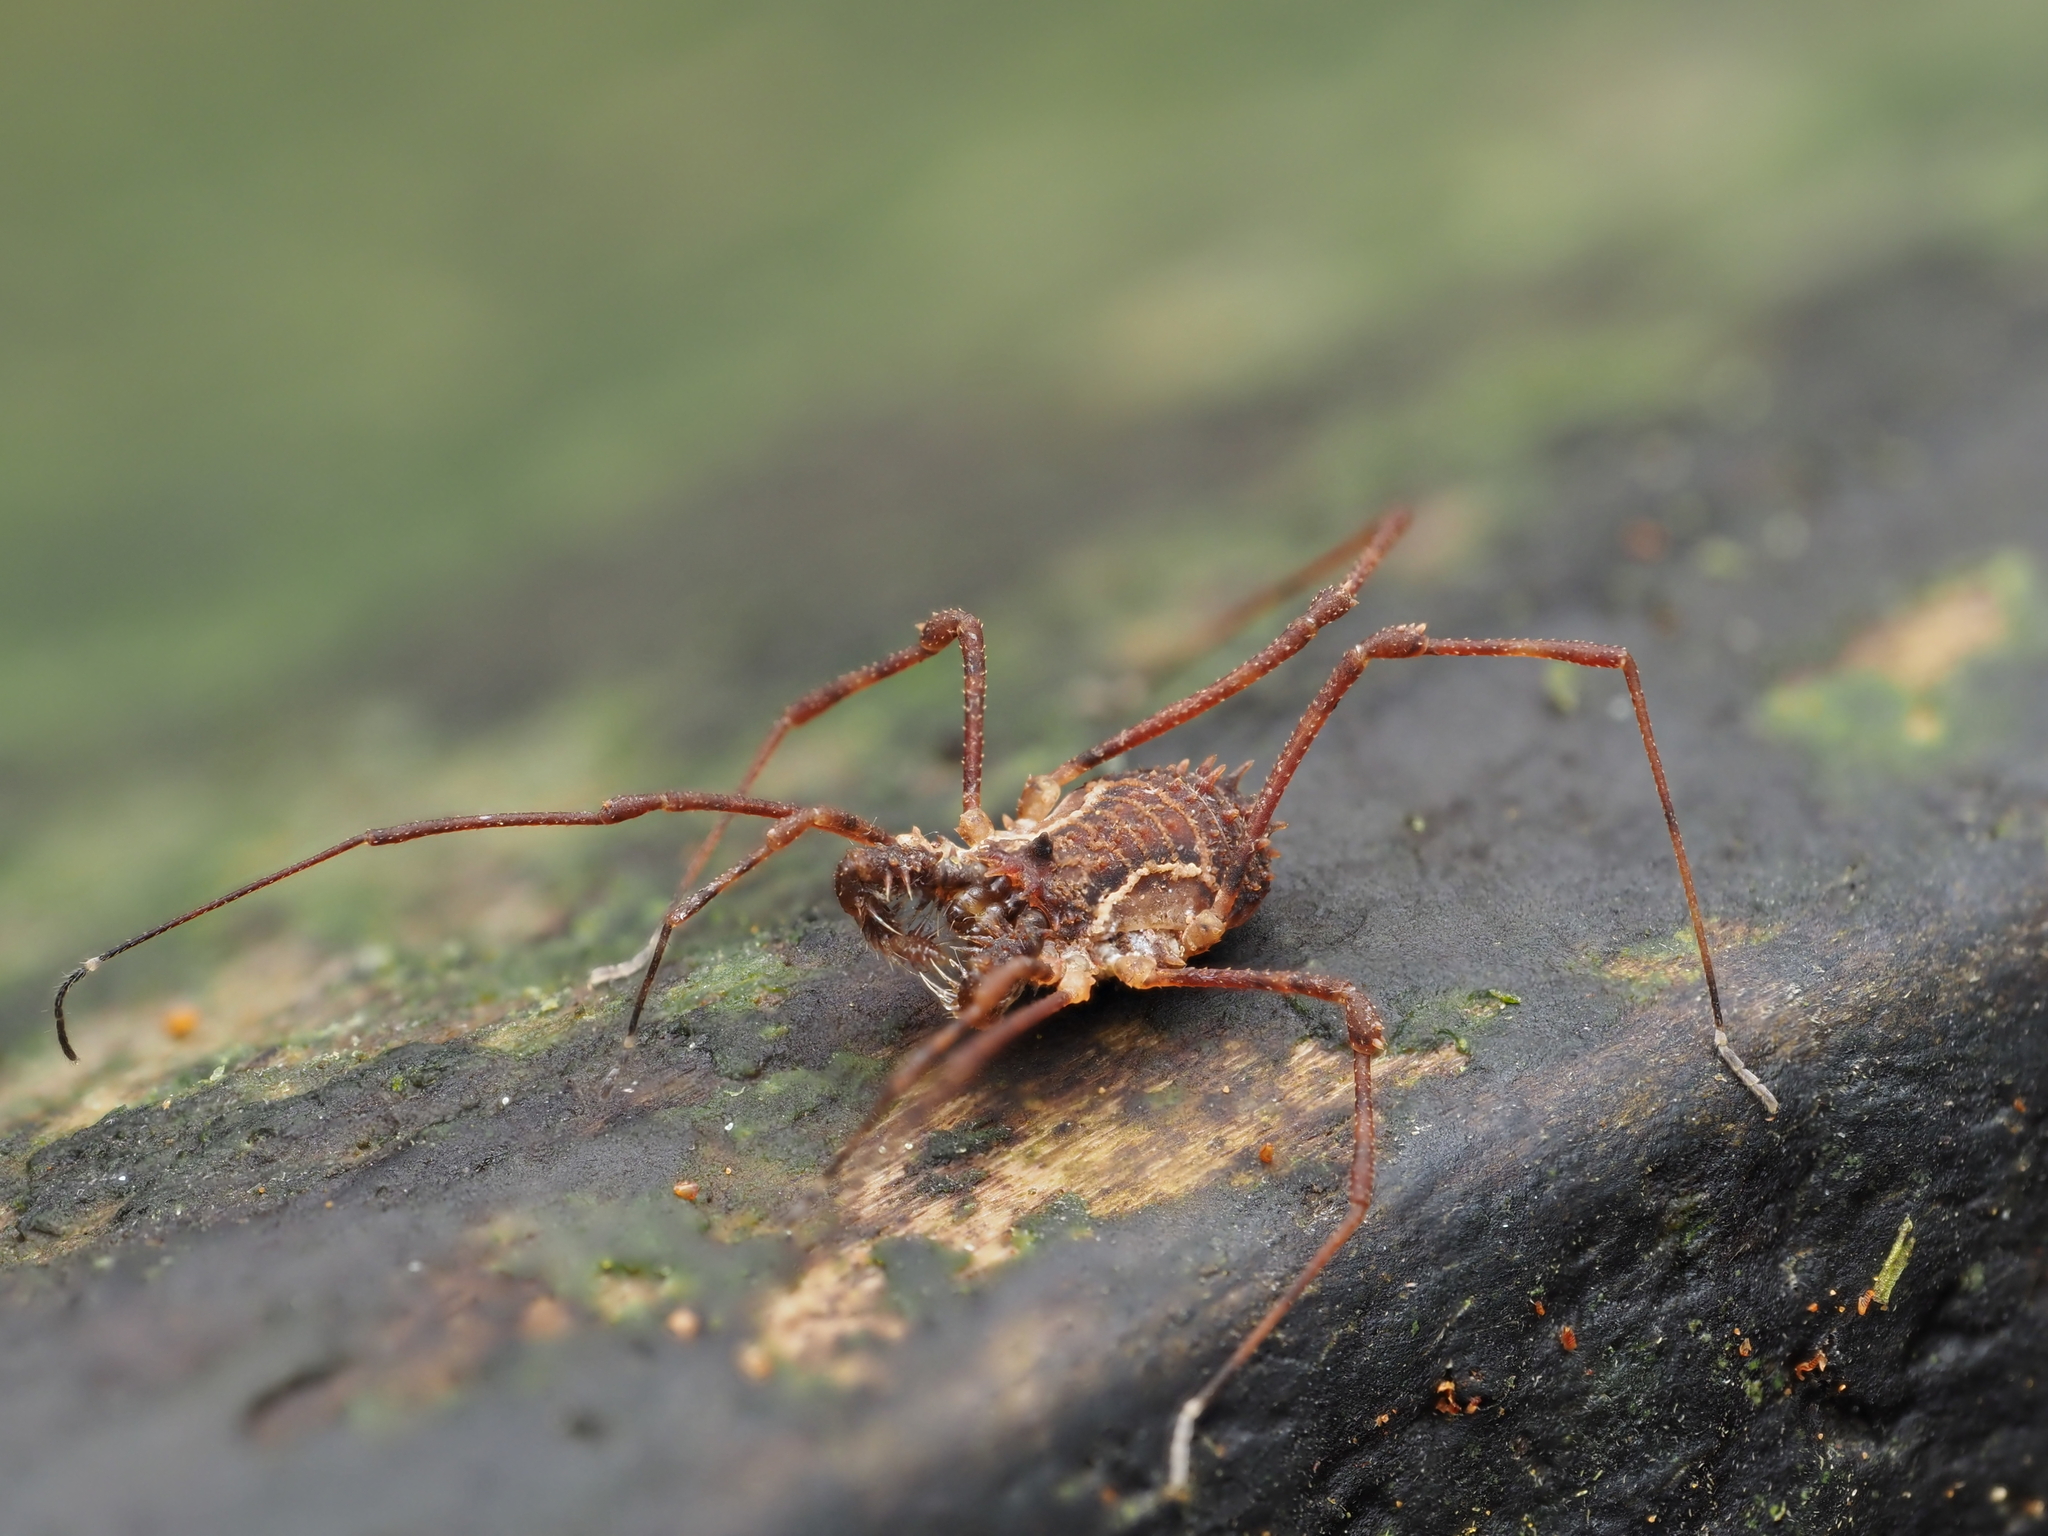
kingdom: Animalia
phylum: Arthropoda
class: Arachnida
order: Opiliones
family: Triaenonychidae
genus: Algidia
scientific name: Algidia chiltoni
